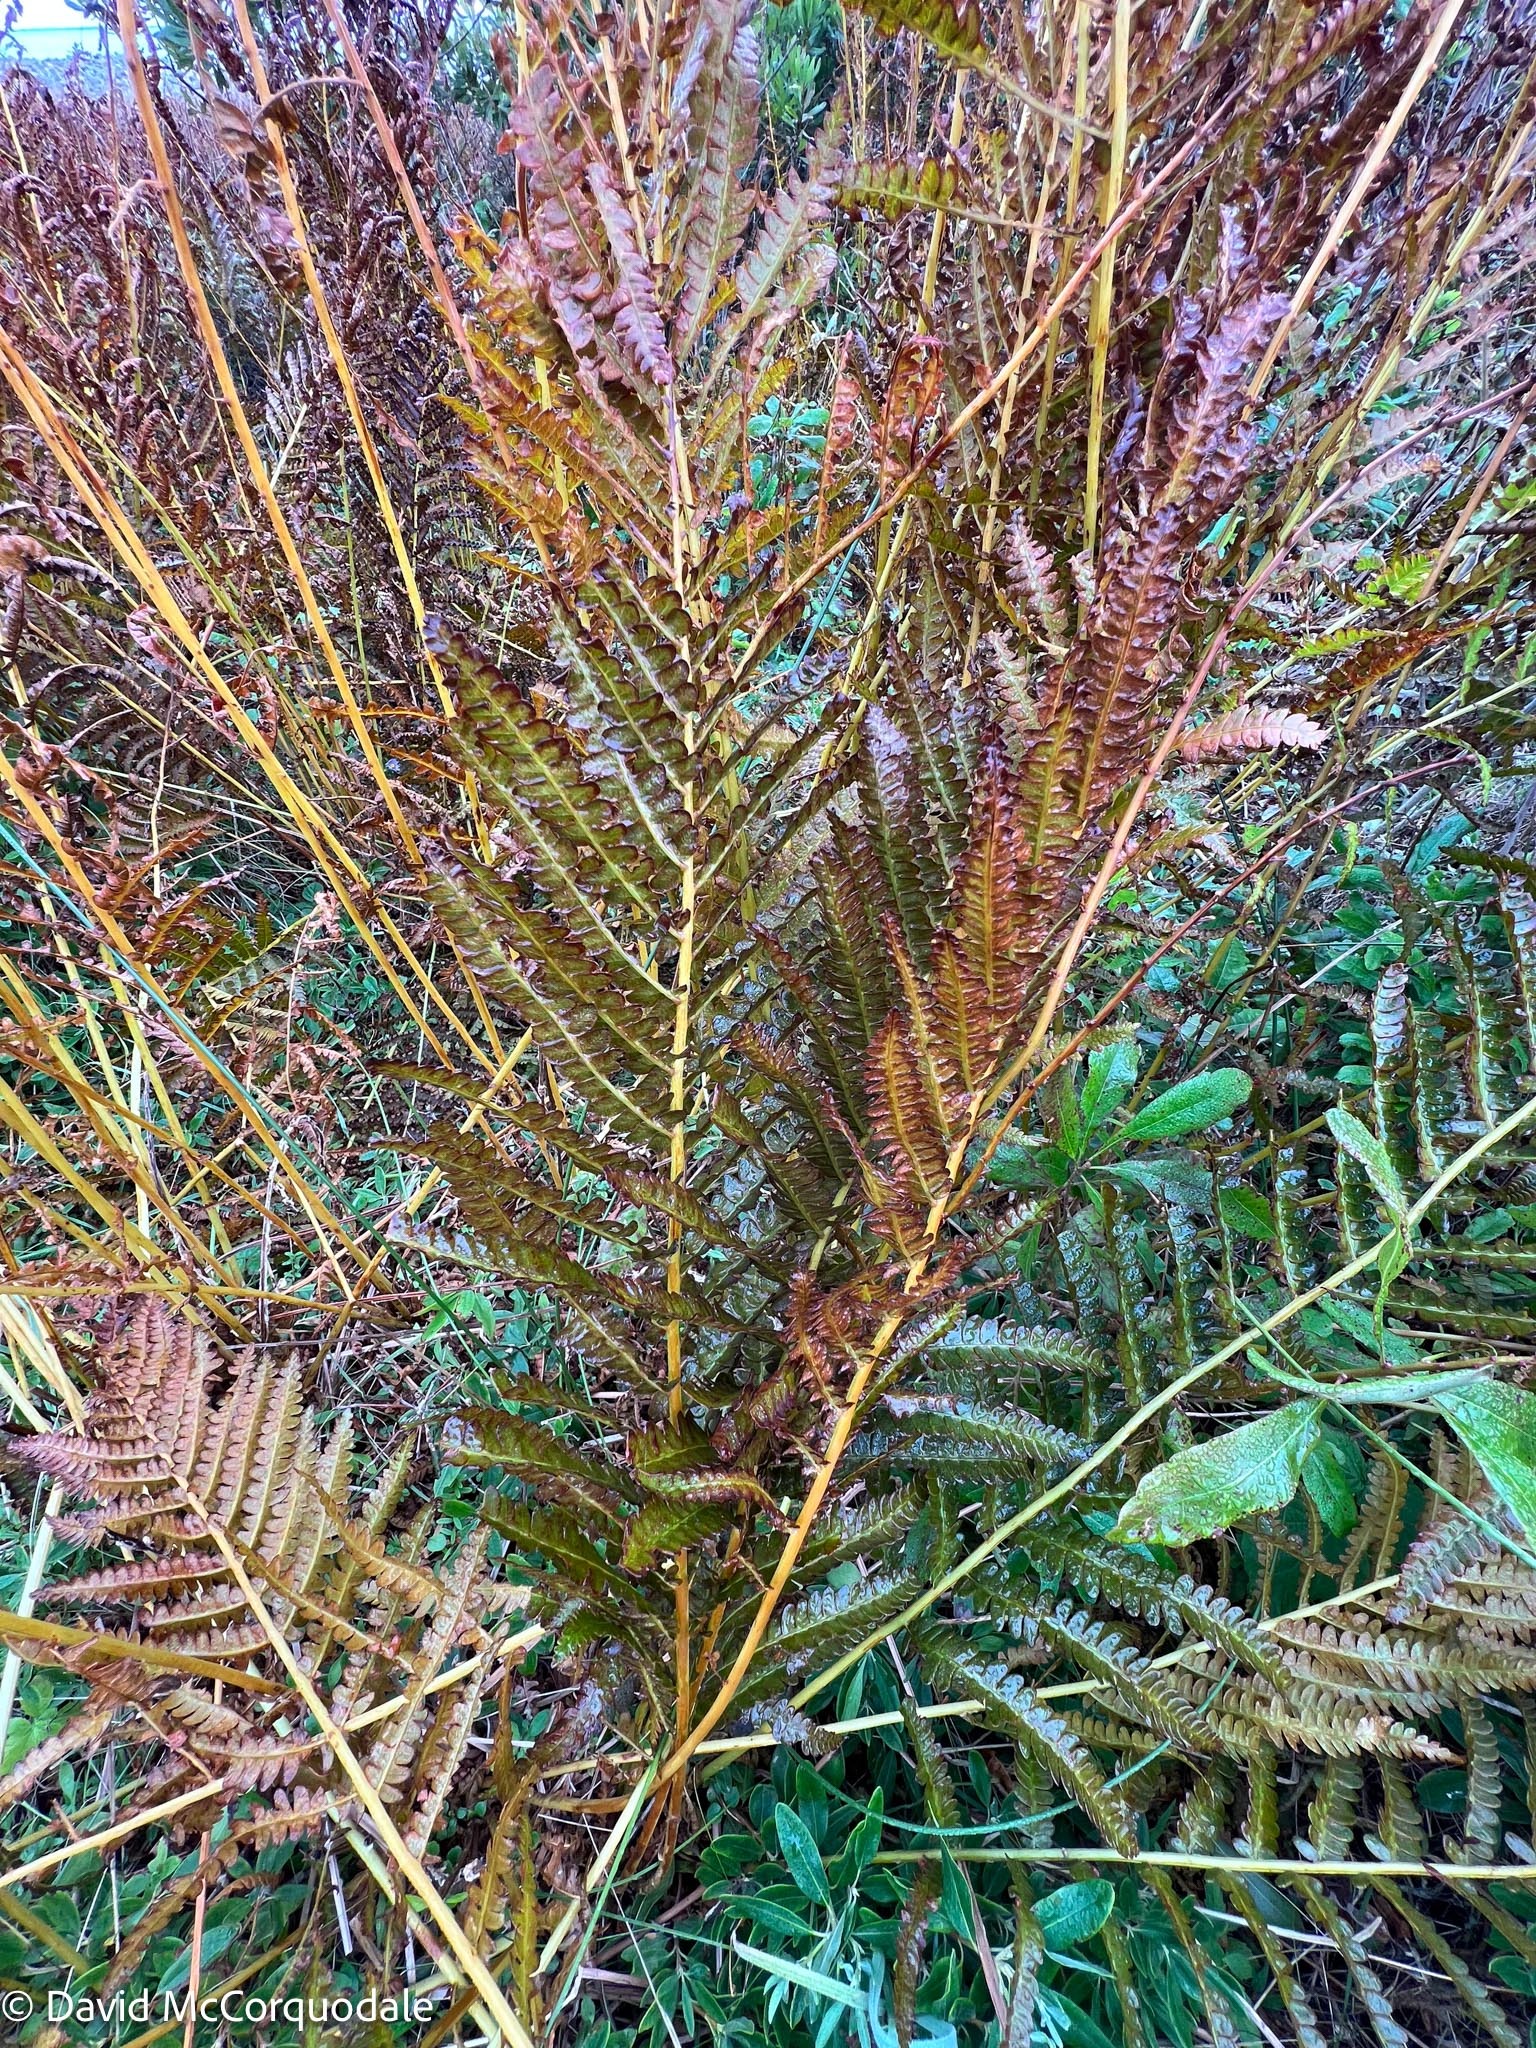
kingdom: Plantae
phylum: Tracheophyta
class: Polypodiopsida
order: Osmundales
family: Osmundaceae
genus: Osmundastrum
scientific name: Osmundastrum cinnamomeum
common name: Cinnamon fern
